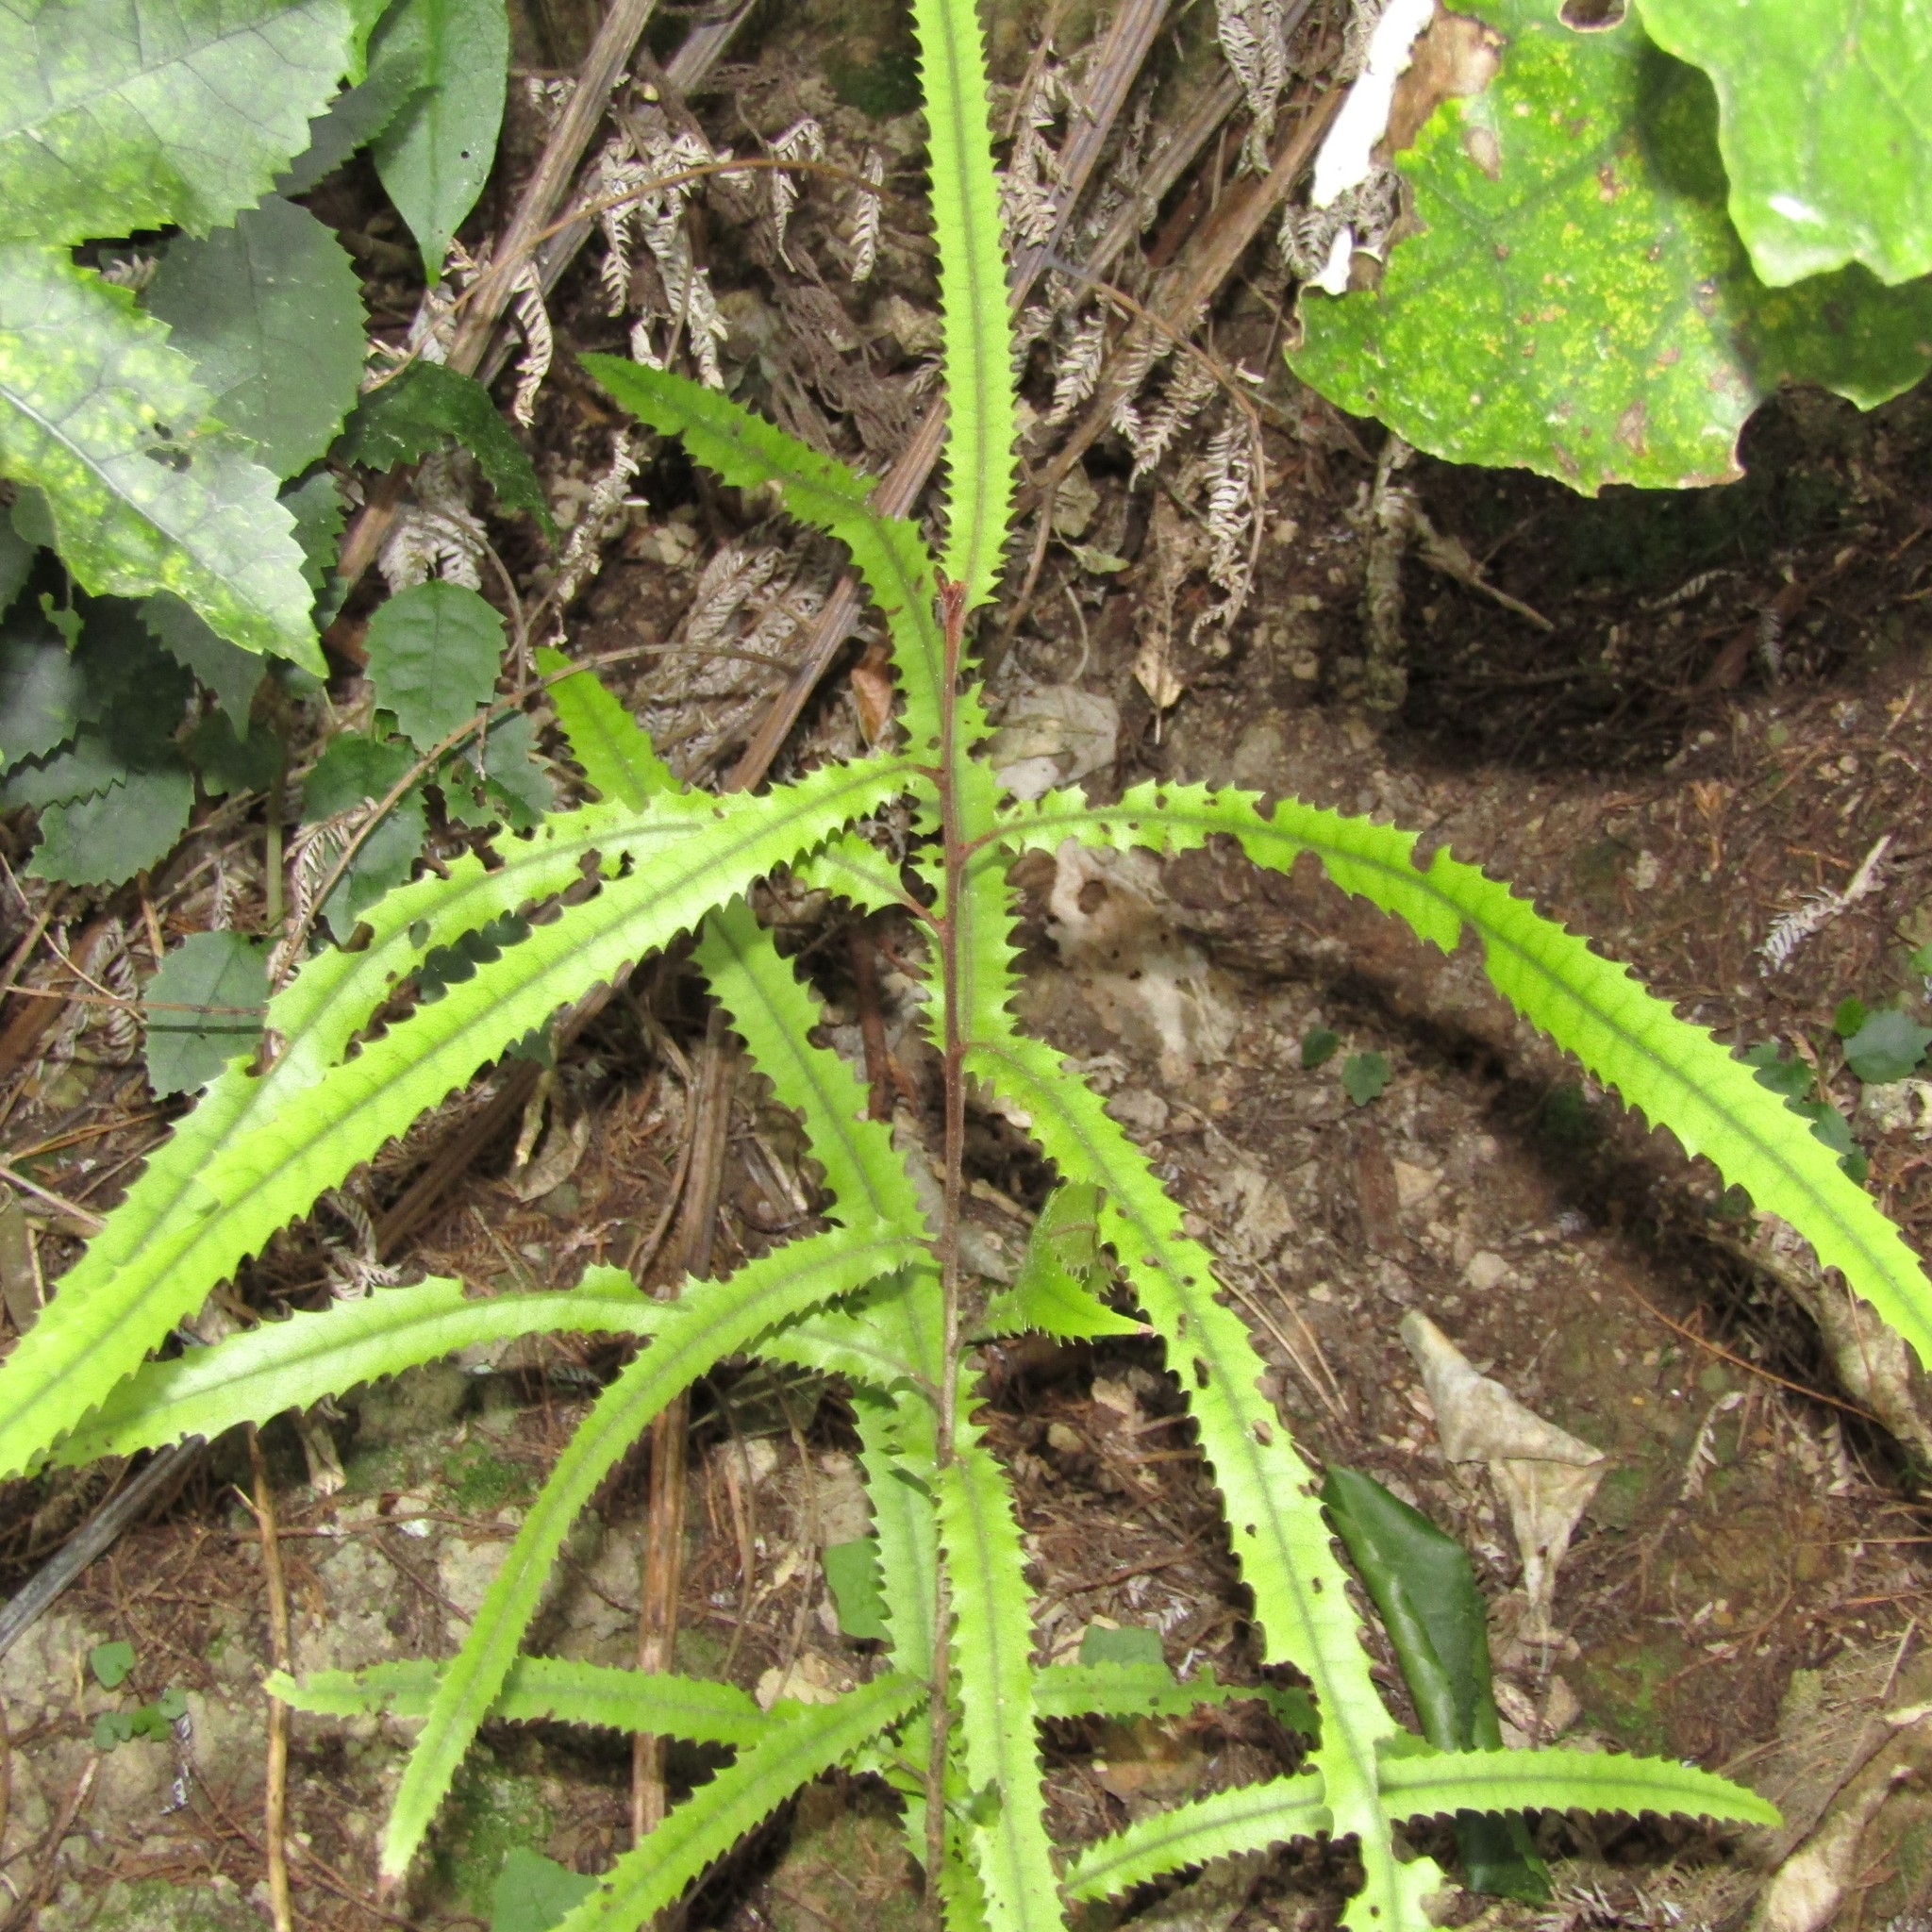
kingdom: Plantae
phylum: Tracheophyta
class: Magnoliopsida
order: Proteales
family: Proteaceae
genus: Knightia
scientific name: Knightia excelsa
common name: New zealand-honeysuckle
